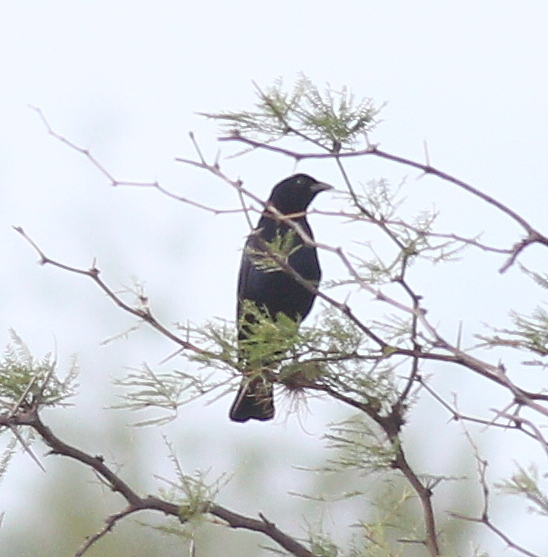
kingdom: Animalia
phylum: Chordata
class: Aves
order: Passeriformes
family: Icteridae
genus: Molothrus
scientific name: Molothrus bonariensis
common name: Shiny cowbird
